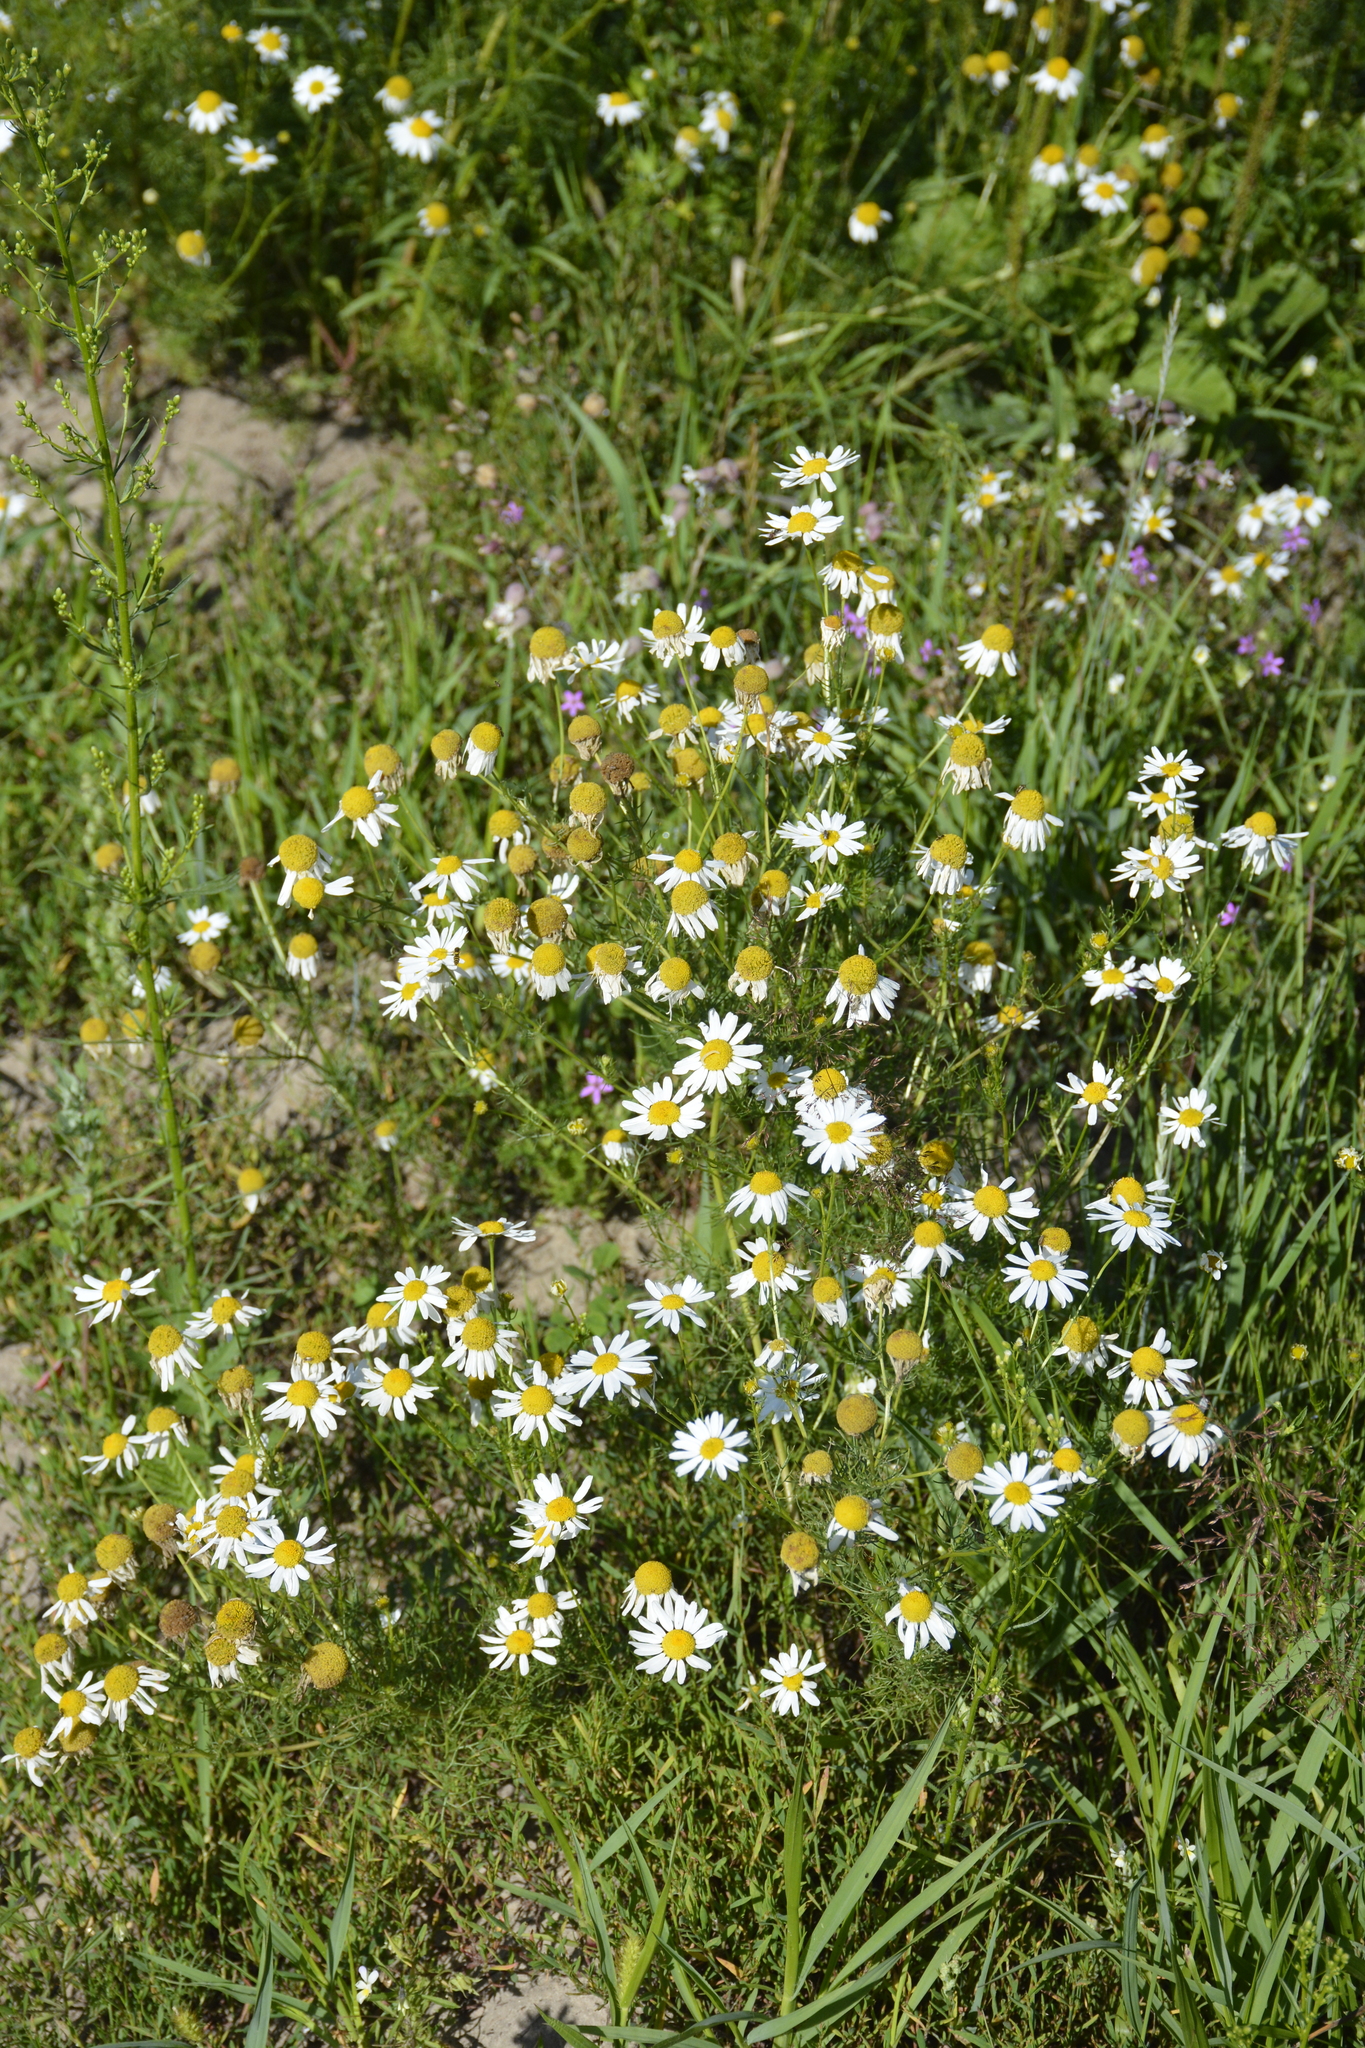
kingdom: Plantae
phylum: Tracheophyta
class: Magnoliopsida
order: Asterales
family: Asteraceae
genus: Tripleurospermum
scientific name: Tripleurospermum inodorum
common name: Scentless mayweed
